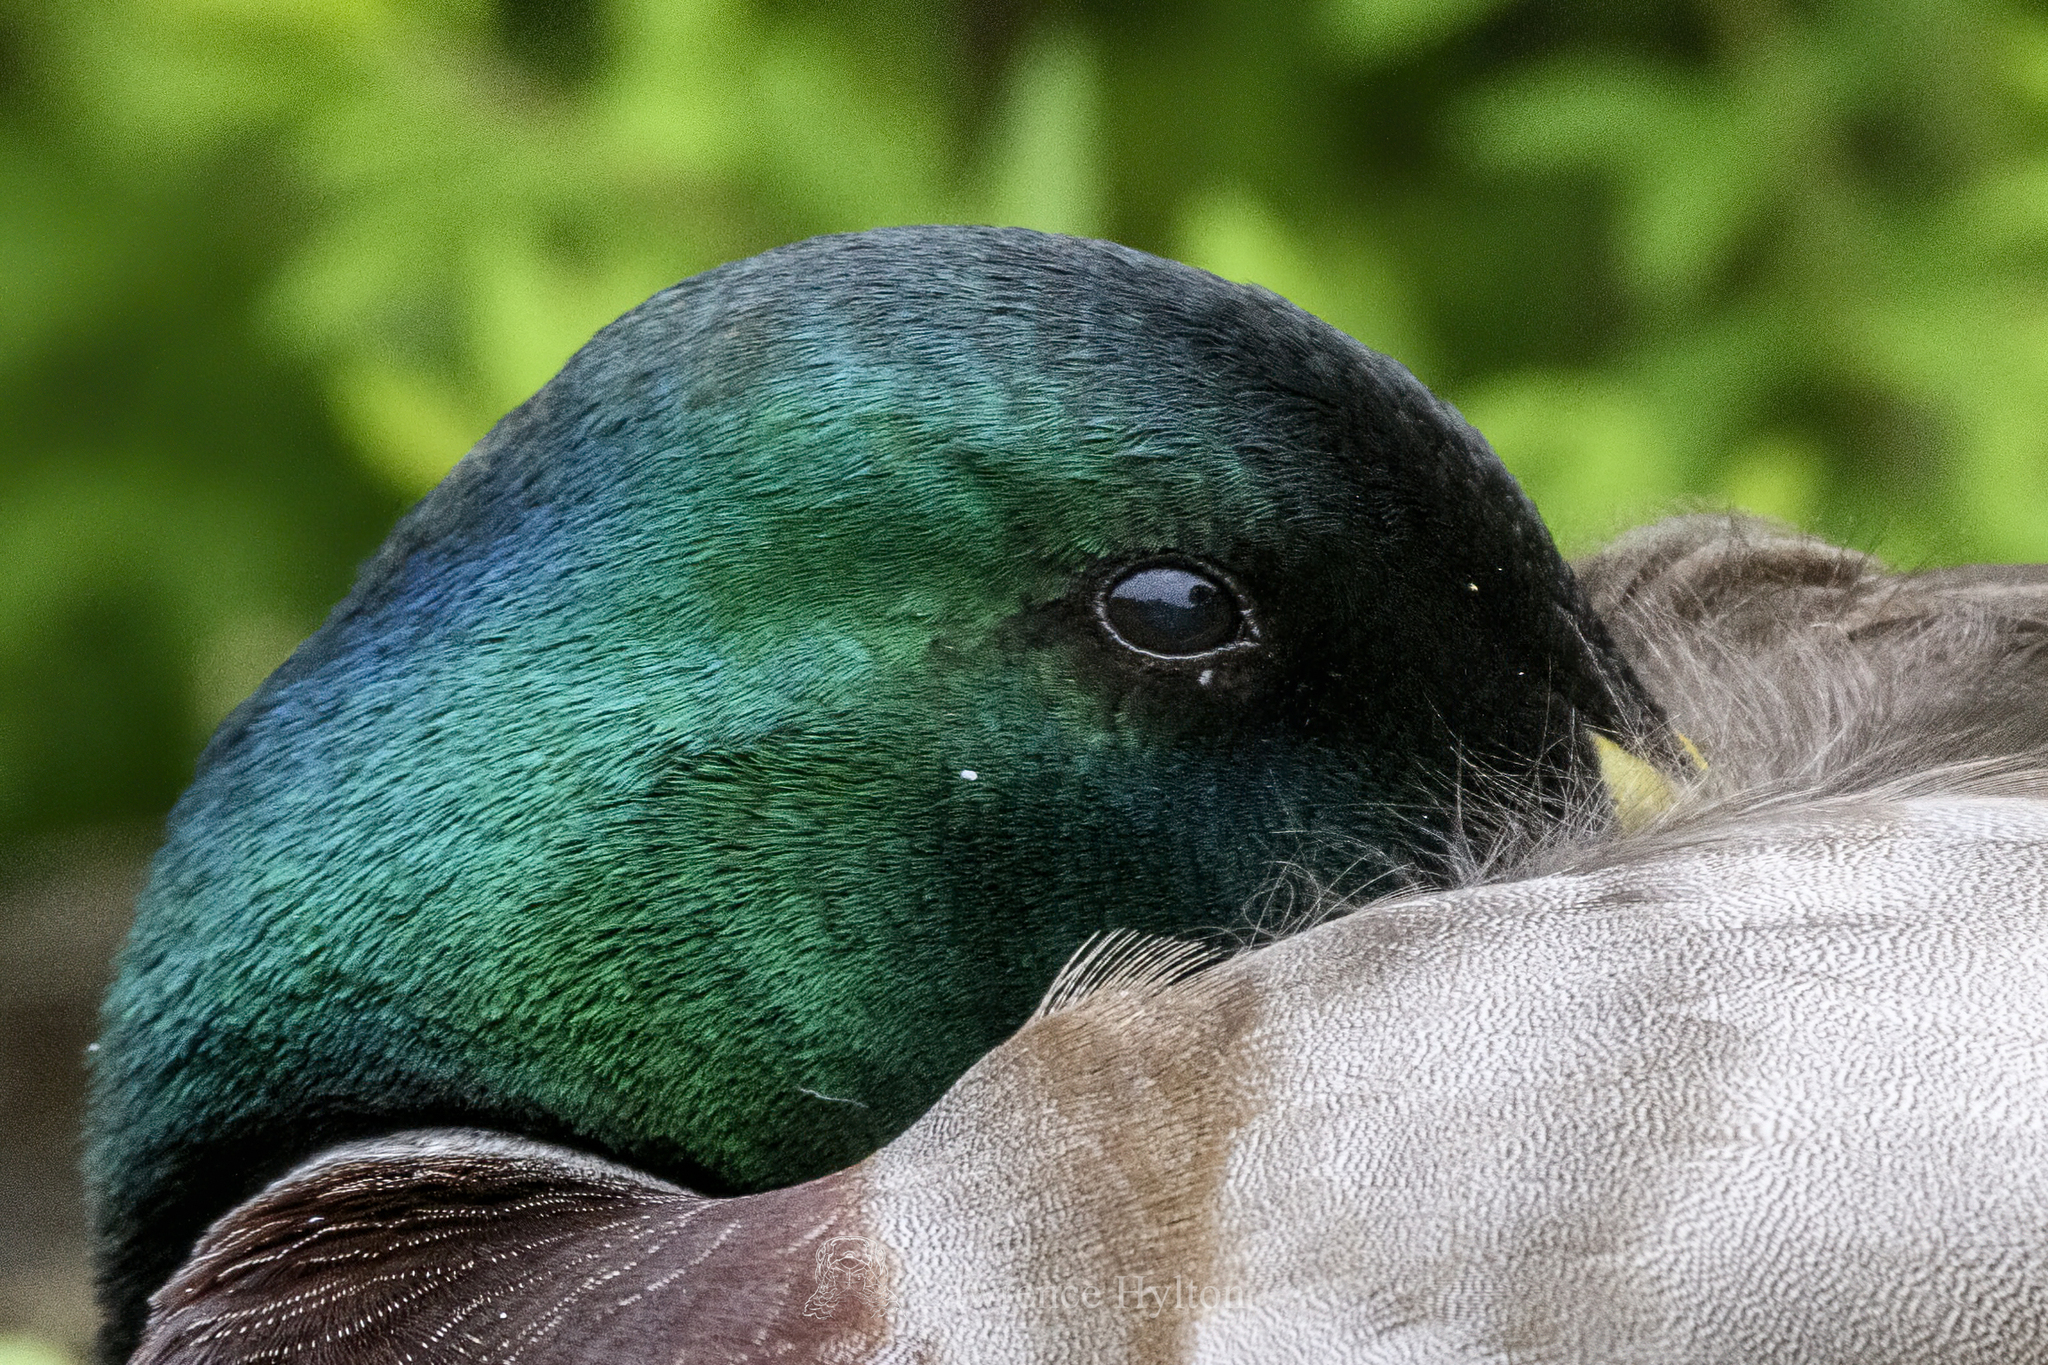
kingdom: Animalia
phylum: Chordata
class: Aves
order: Anseriformes
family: Anatidae
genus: Anas
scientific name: Anas platyrhynchos
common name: Mallard
